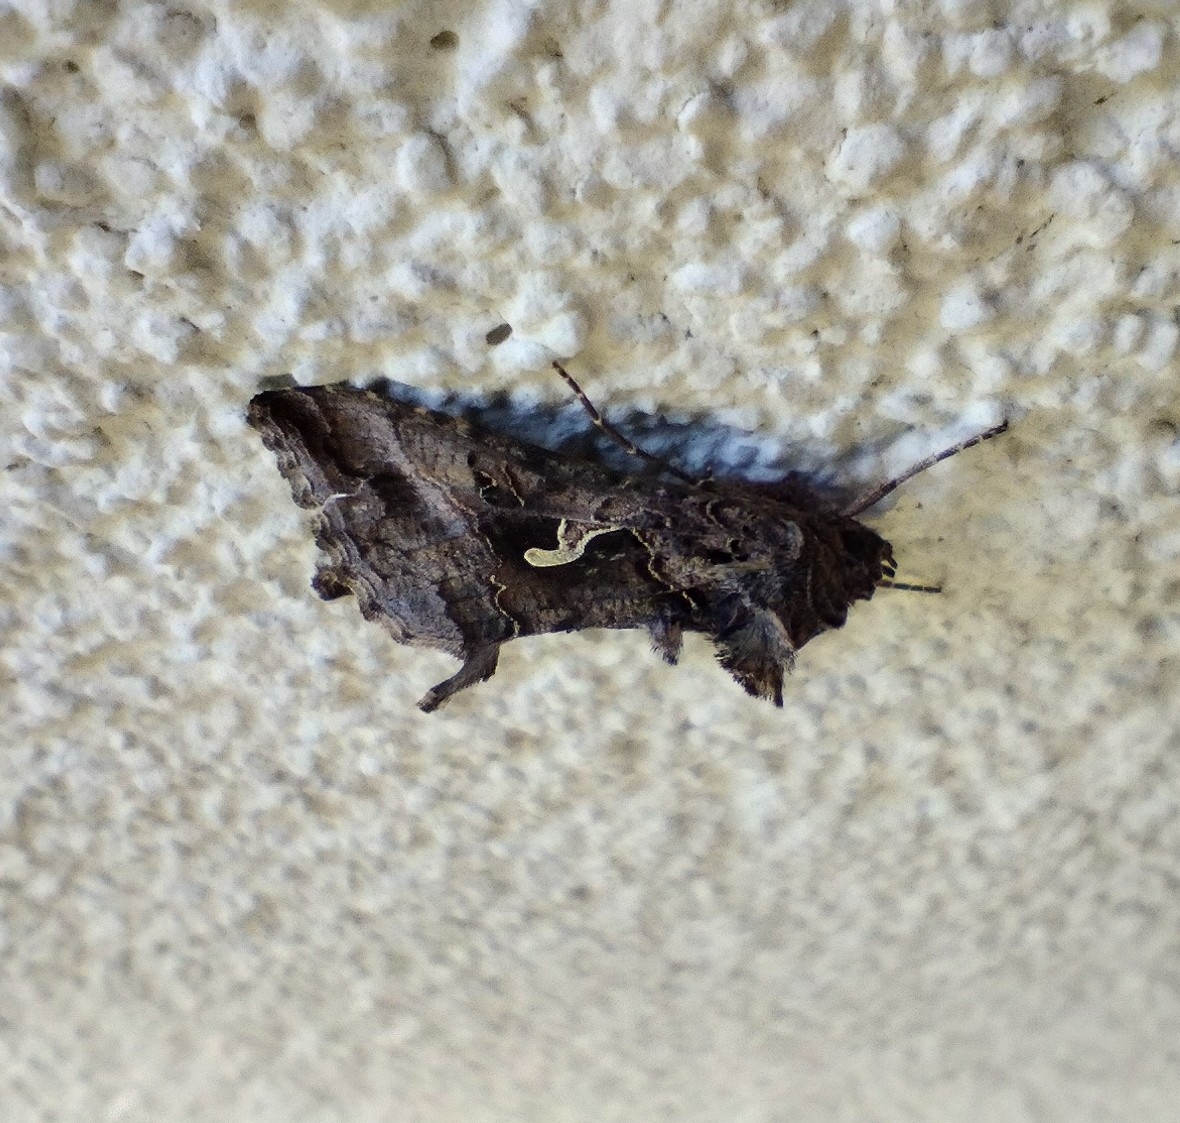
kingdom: Animalia
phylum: Arthropoda
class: Insecta
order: Lepidoptera
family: Noctuidae
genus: Autographa
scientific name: Autographa gamma
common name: Silver y
